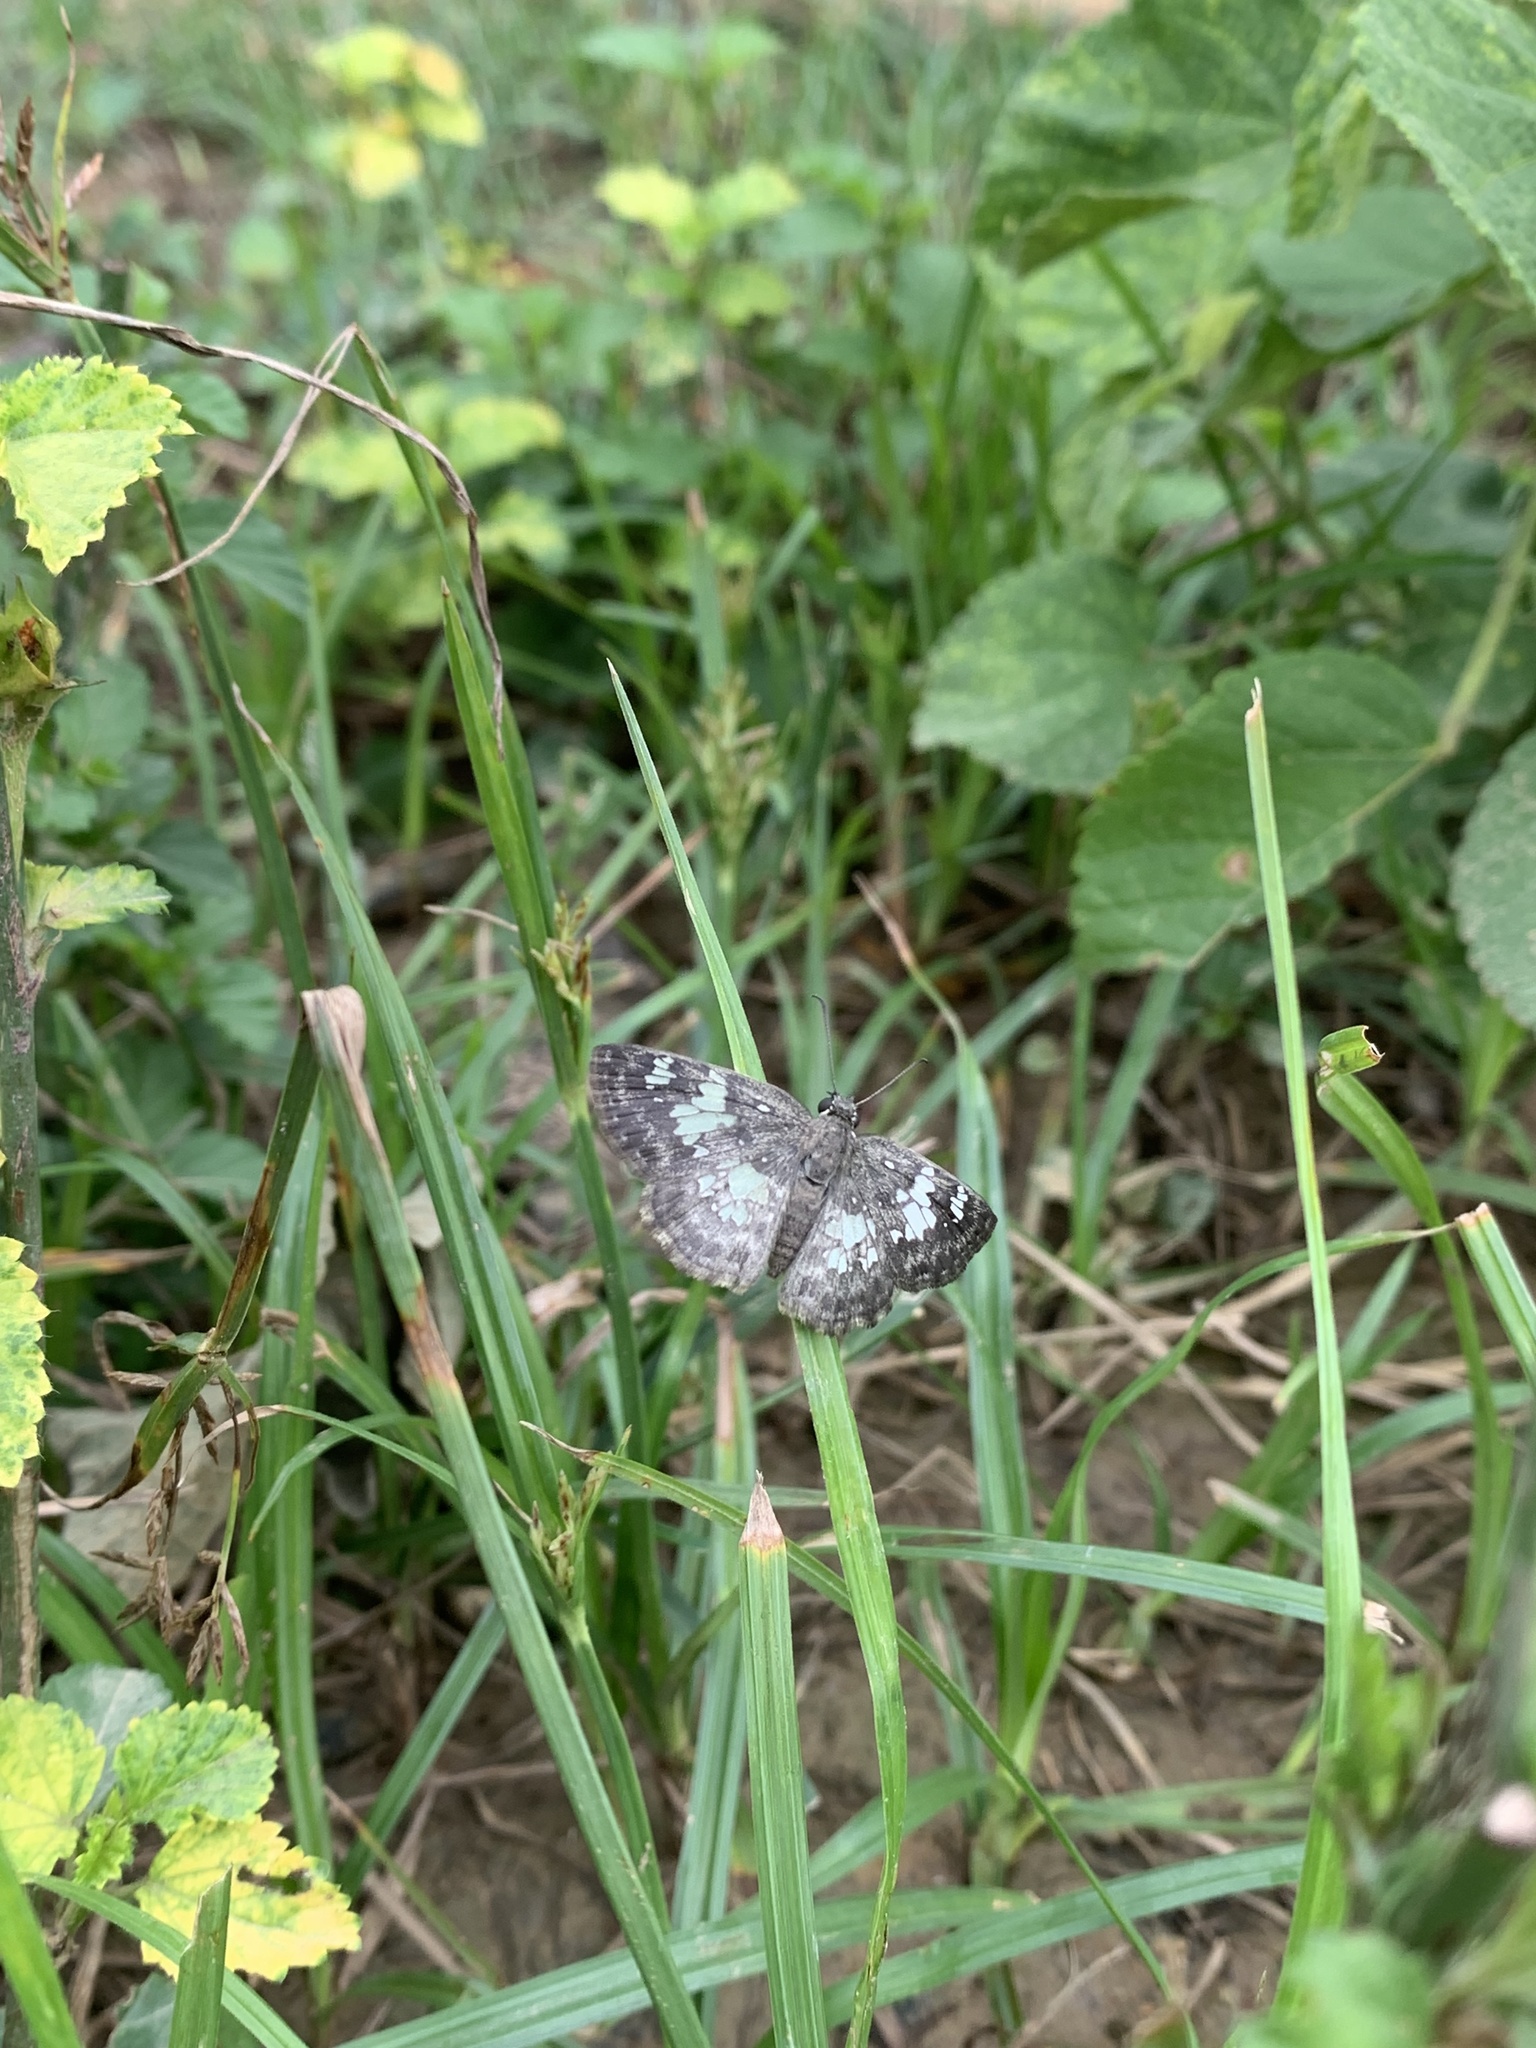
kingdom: Animalia
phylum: Arthropoda
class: Insecta
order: Lepidoptera
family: Hesperiidae
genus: Xenophanes
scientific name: Xenophanes tryxus
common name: Glassy-winged skipper
